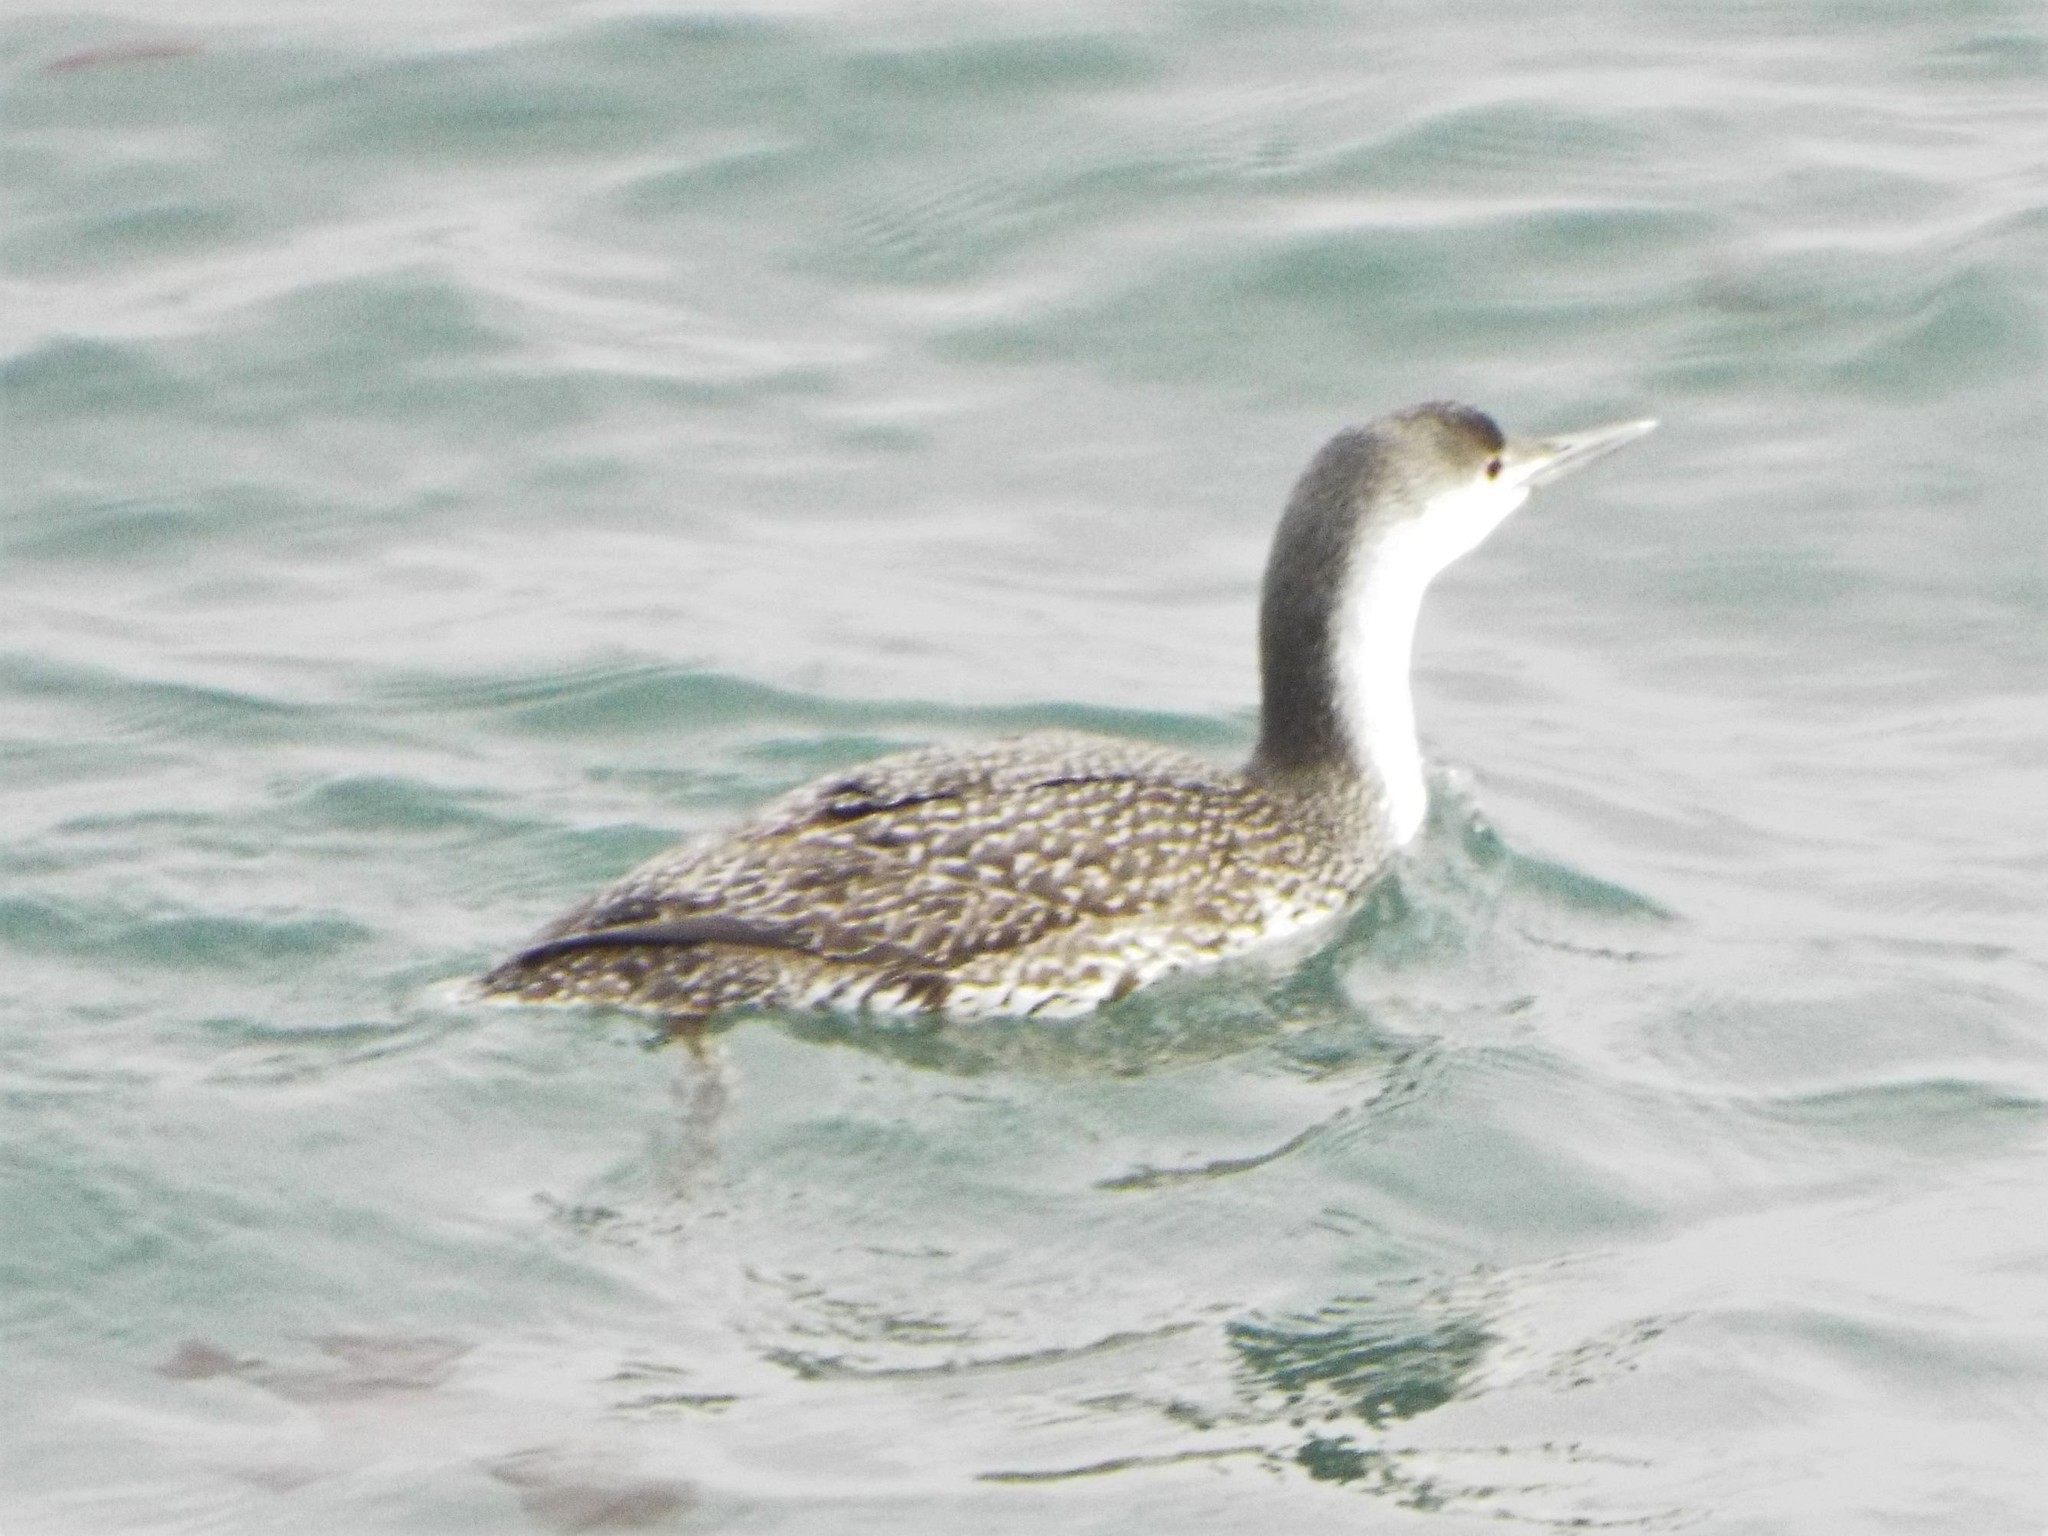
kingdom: Animalia
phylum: Chordata
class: Aves
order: Gaviiformes
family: Gaviidae
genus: Gavia
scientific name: Gavia stellata
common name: Red-throated loon
